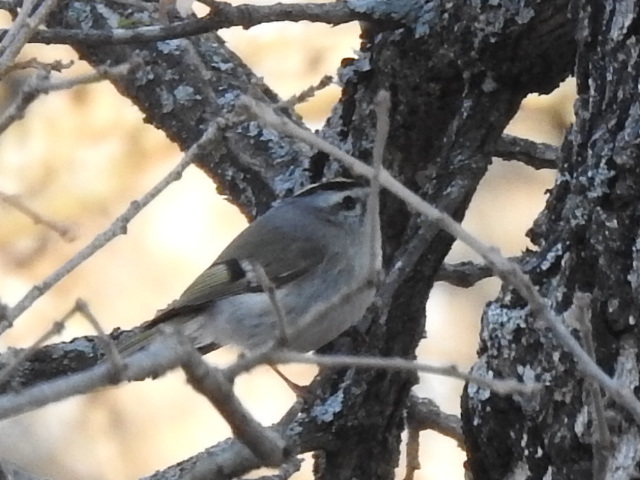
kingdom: Animalia
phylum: Chordata
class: Aves
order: Passeriformes
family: Regulidae
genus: Regulus
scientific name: Regulus satrapa
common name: Golden-crowned kinglet
